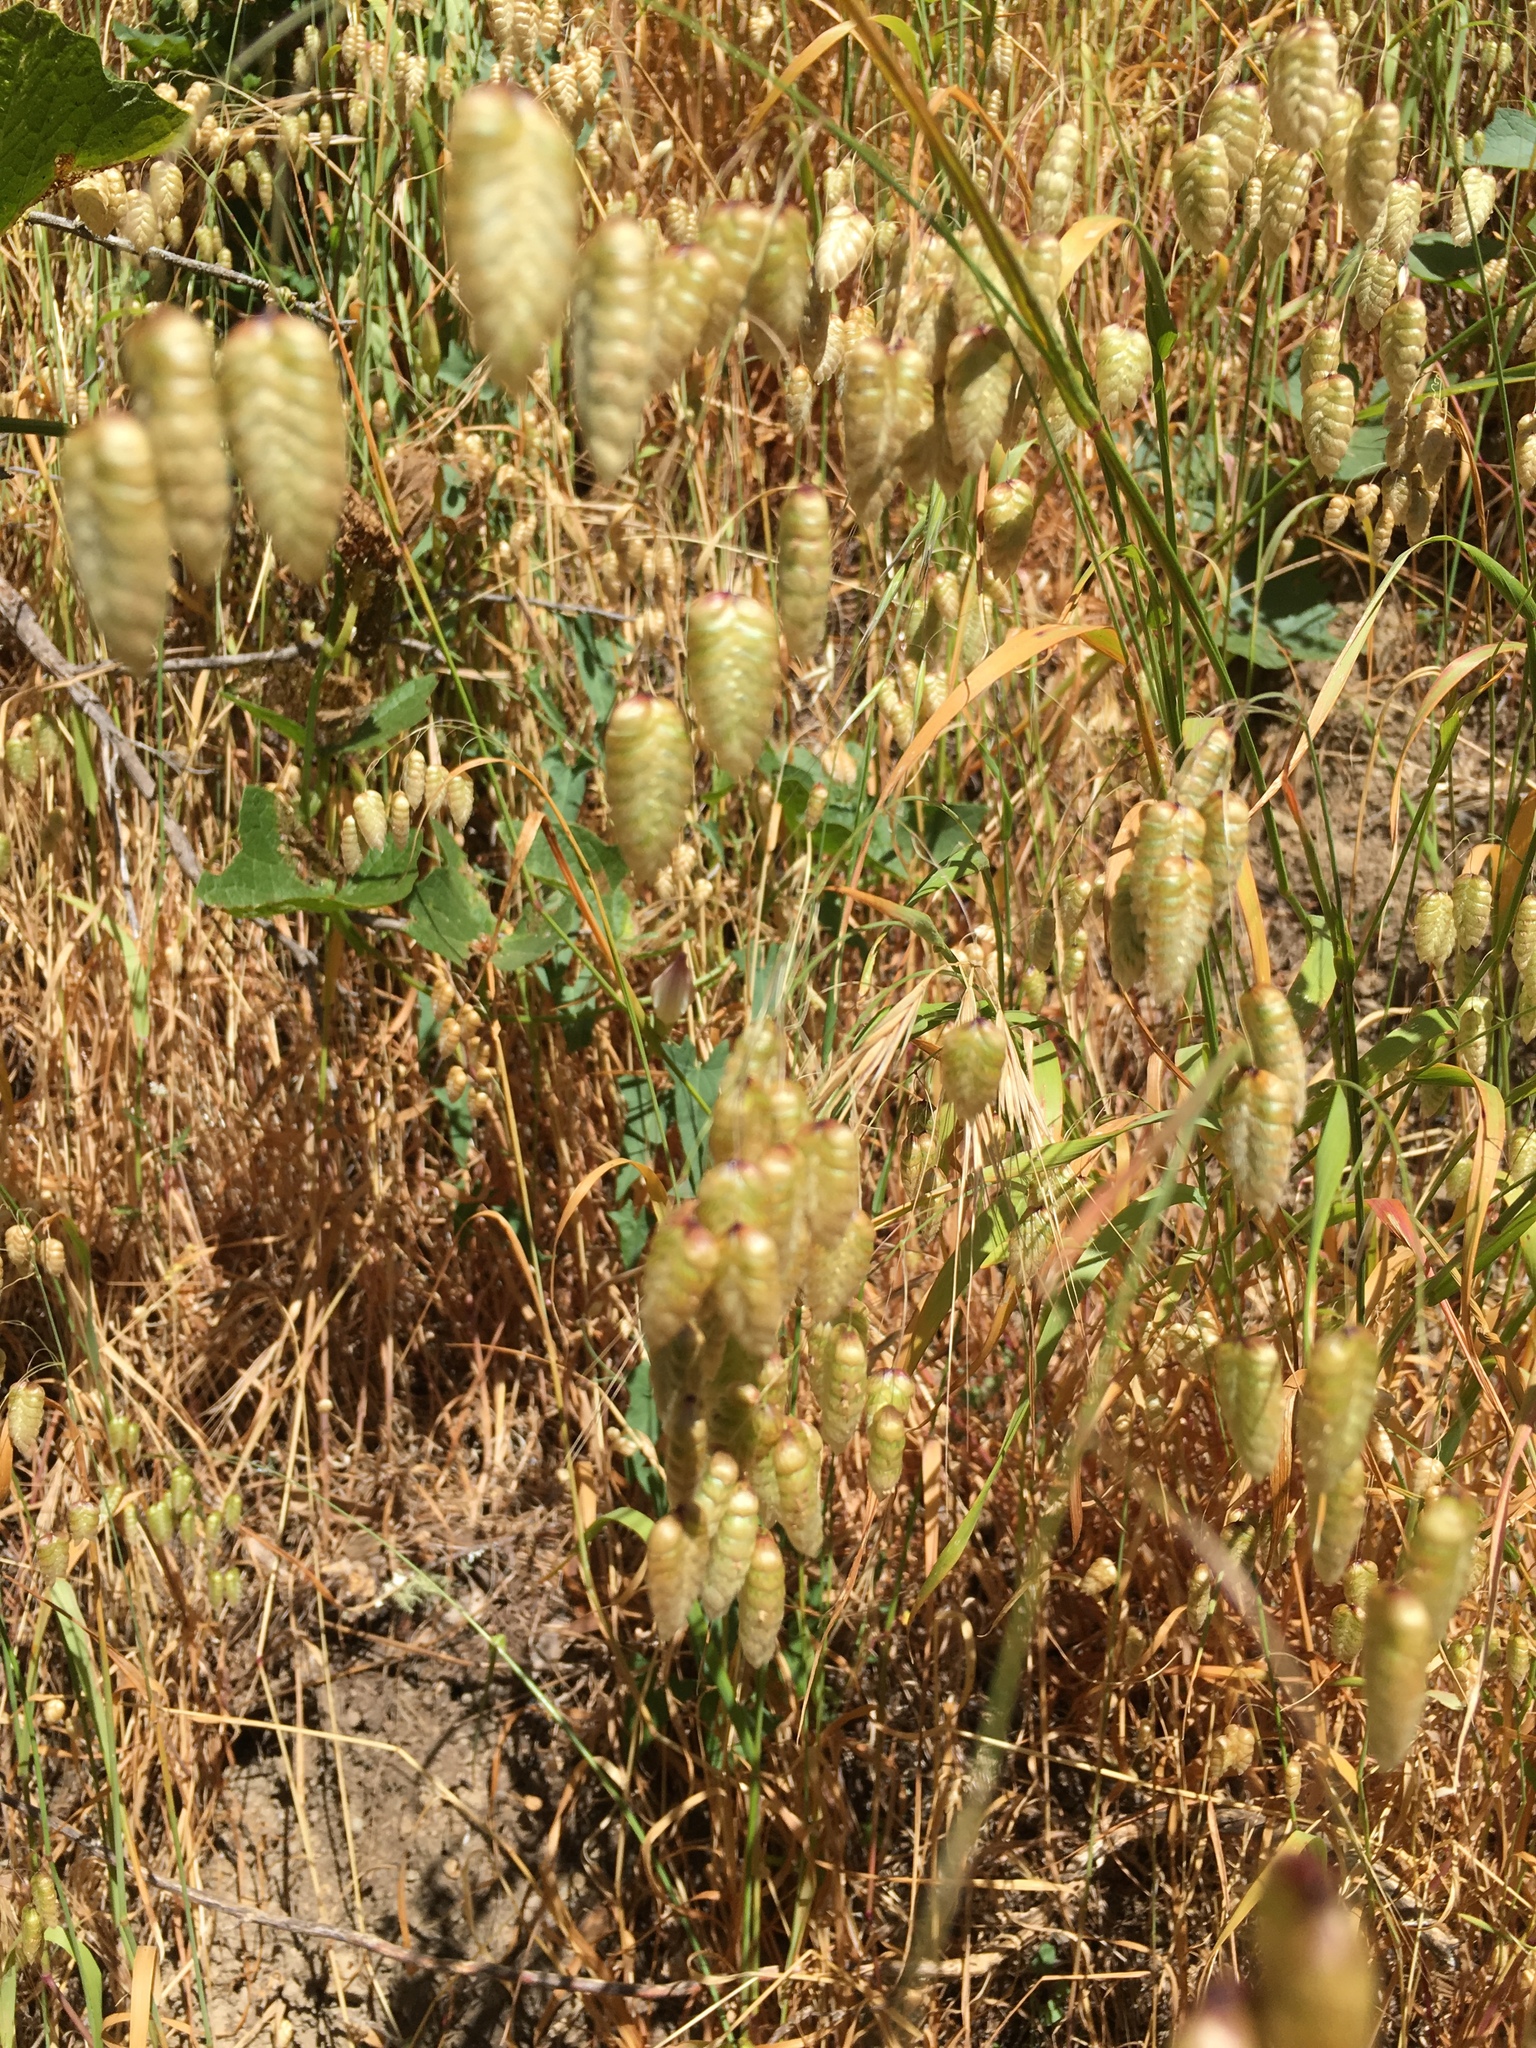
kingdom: Plantae
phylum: Tracheophyta
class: Liliopsida
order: Poales
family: Poaceae
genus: Briza
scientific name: Briza maxima
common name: Big quakinggrass
